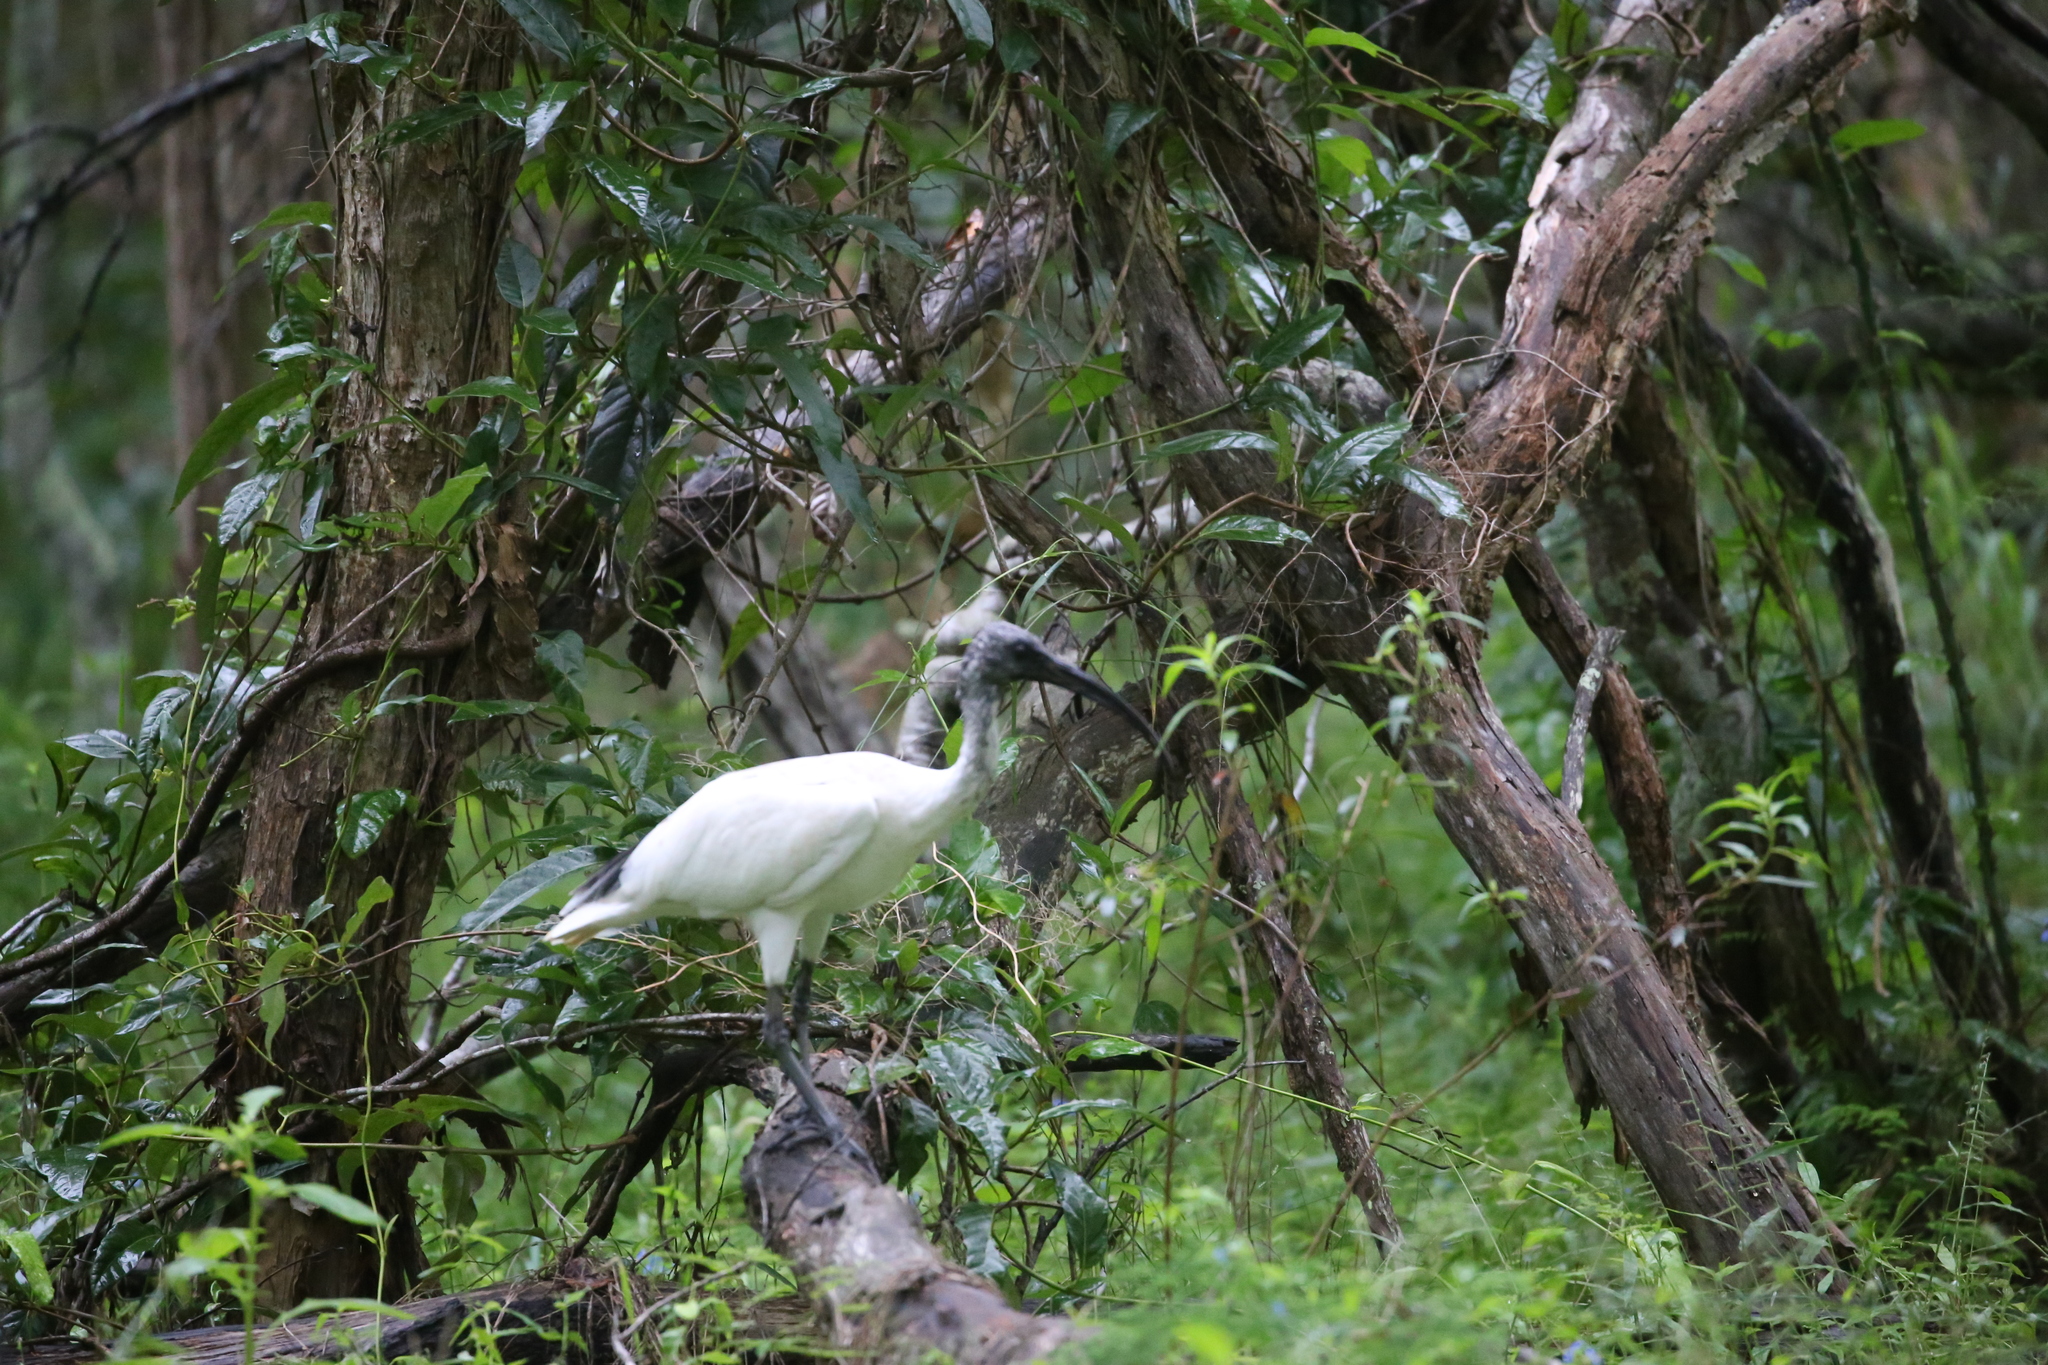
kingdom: Animalia
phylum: Chordata
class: Aves
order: Pelecaniformes
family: Threskiornithidae
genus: Threskiornis
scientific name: Threskiornis molucca
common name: Australian white ibis
